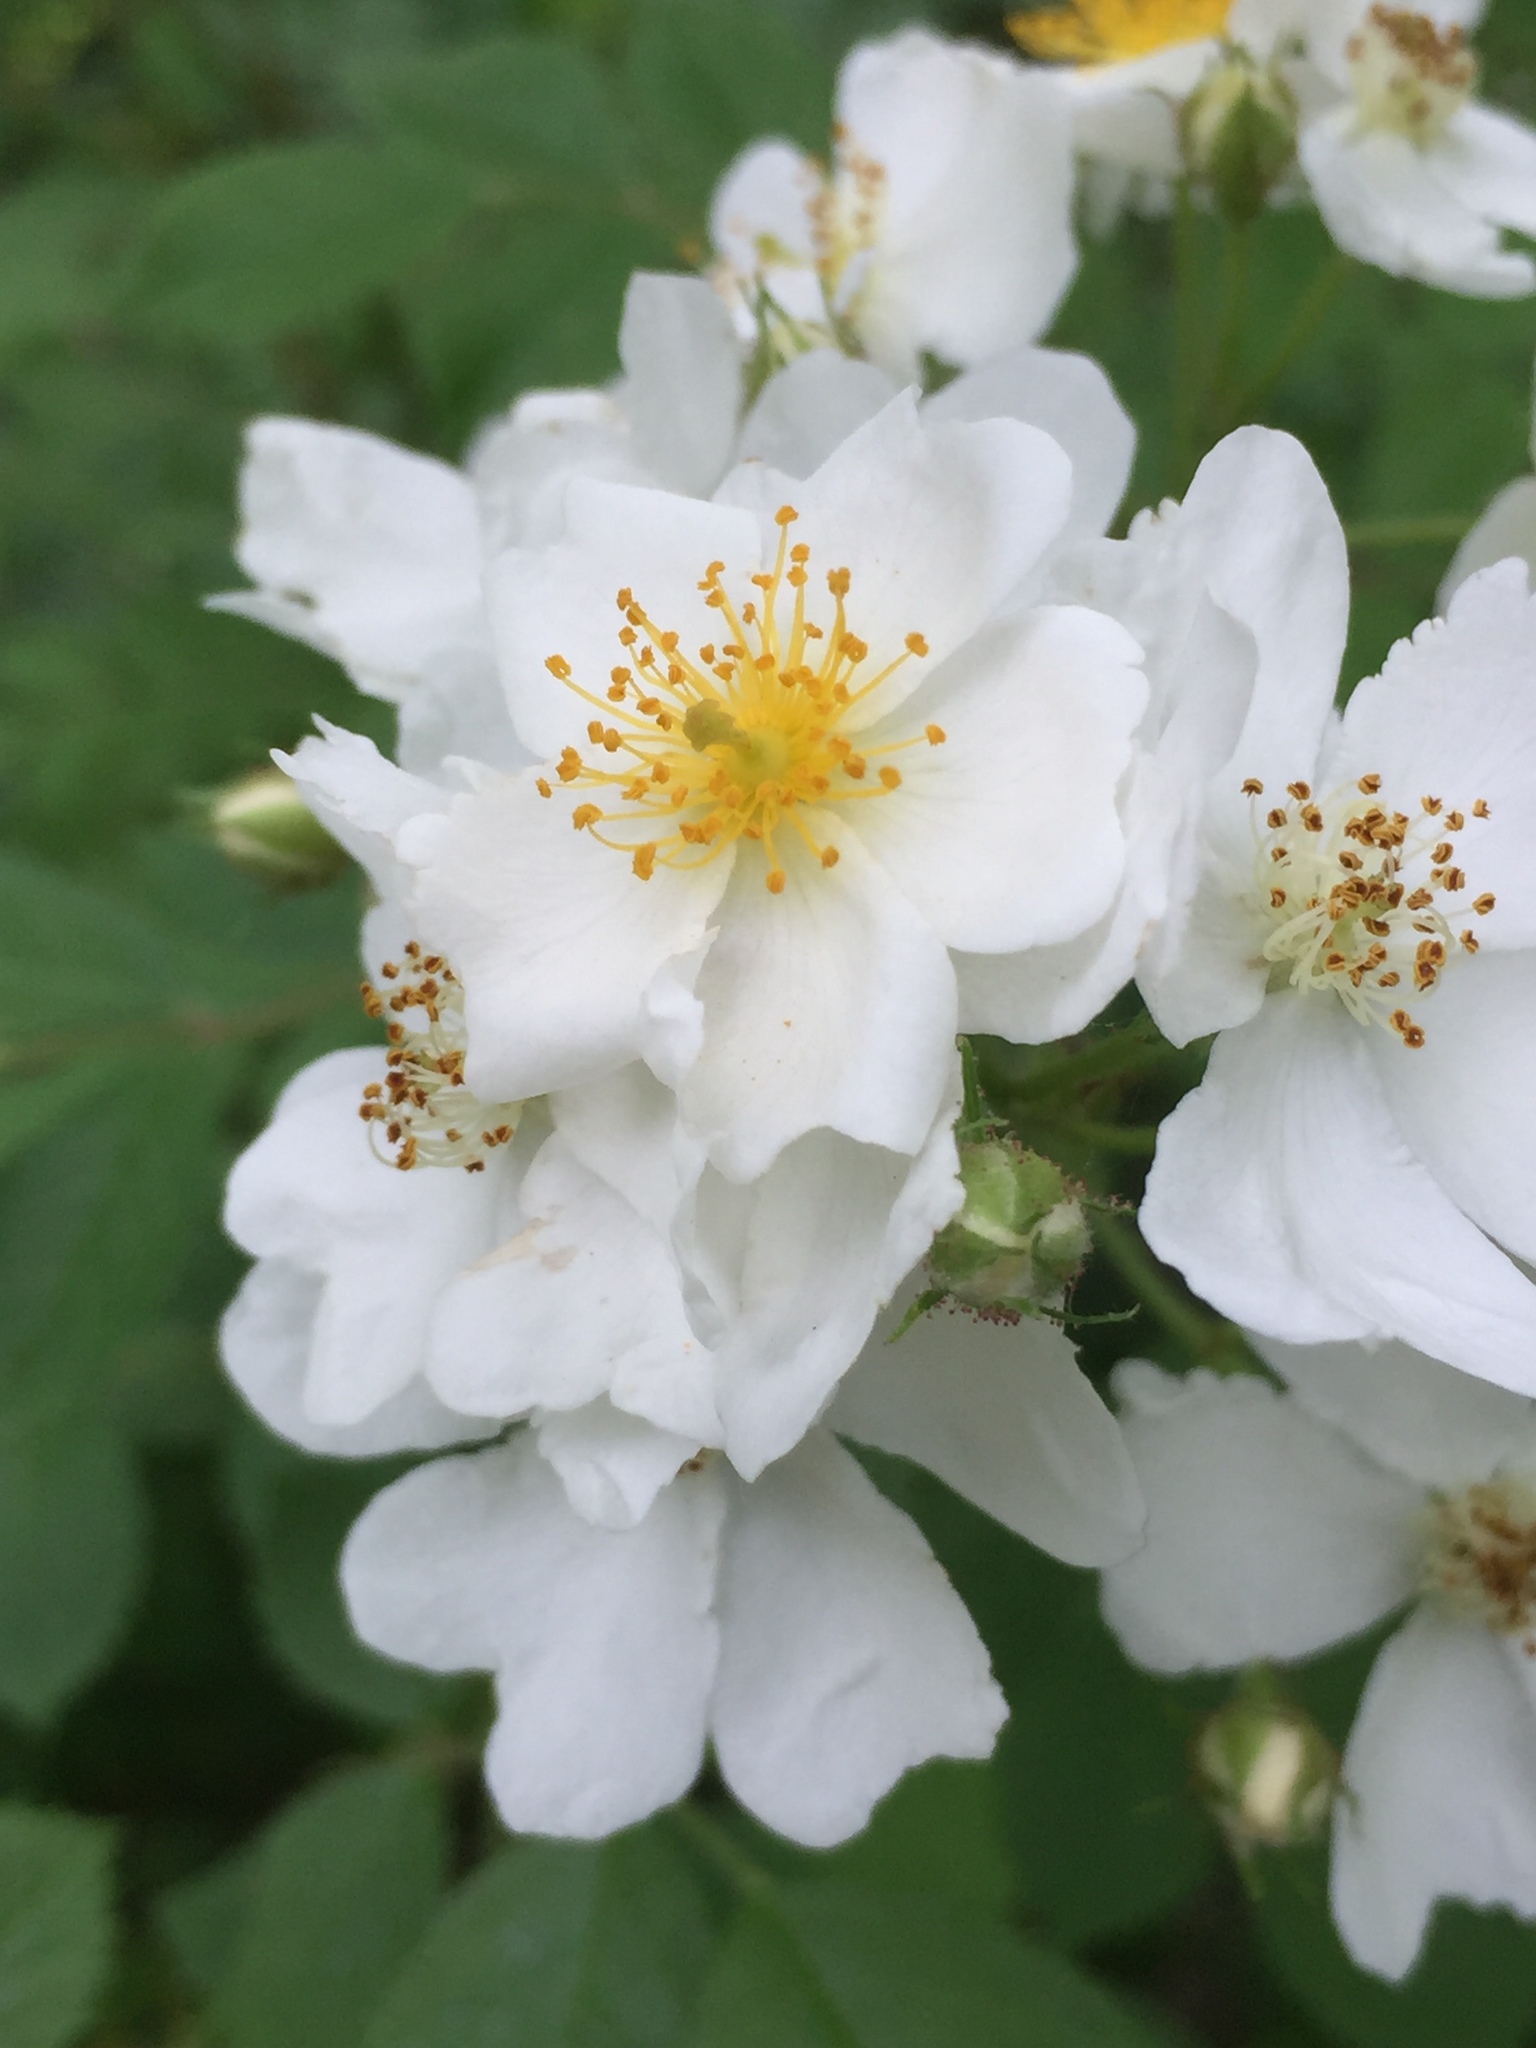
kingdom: Plantae
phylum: Tracheophyta
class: Magnoliopsida
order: Rosales
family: Rosaceae
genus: Rosa
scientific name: Rosa multiflora
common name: Multiflora rose
